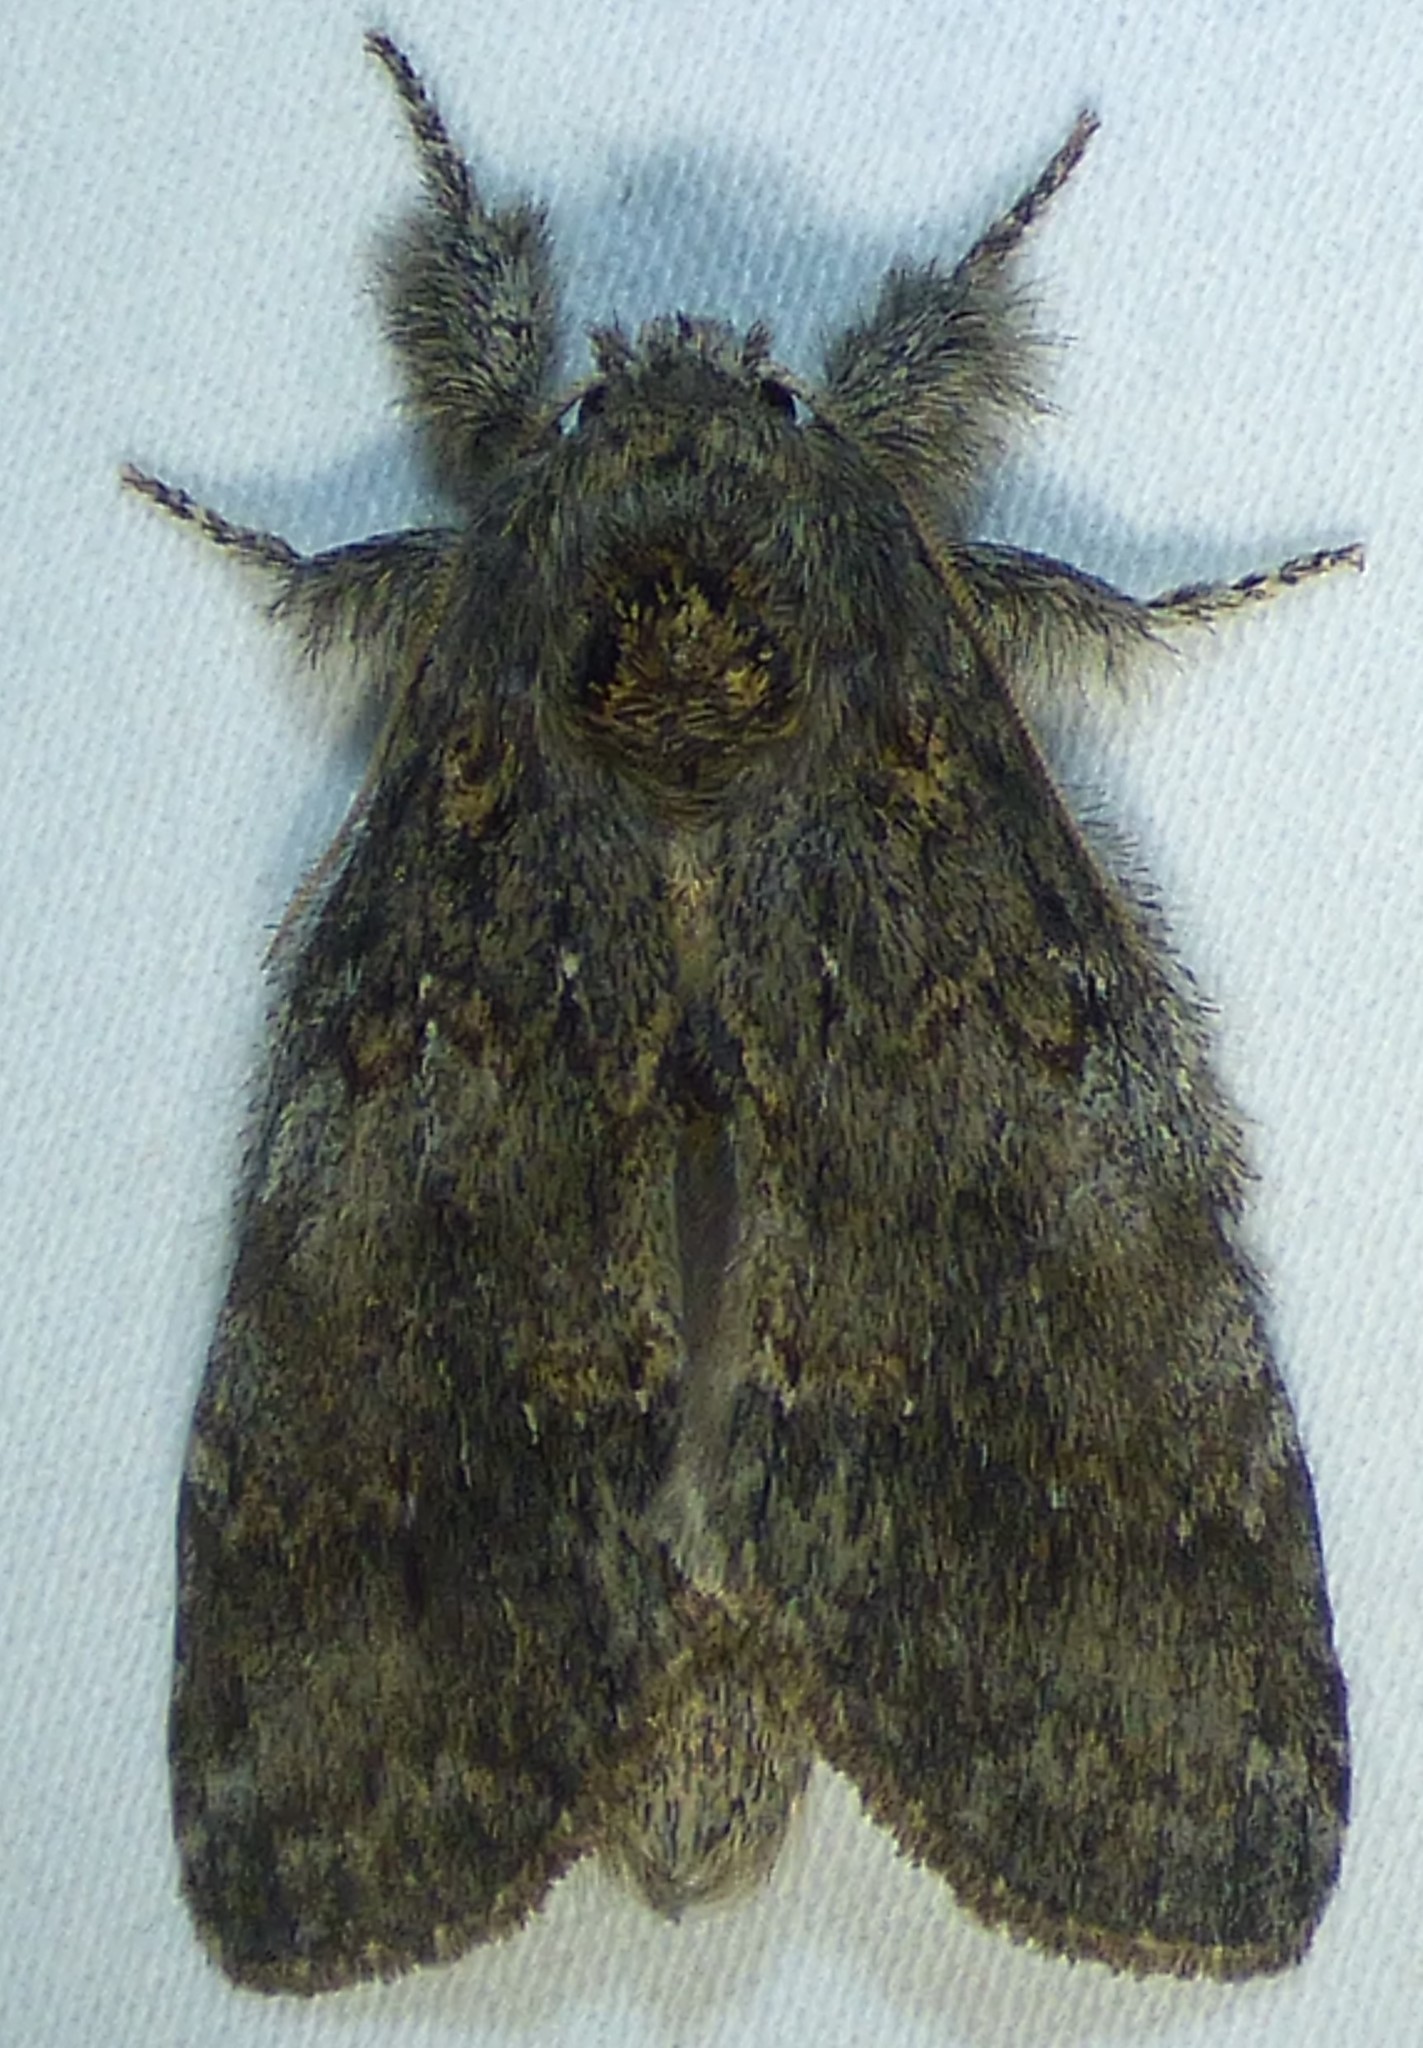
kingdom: Animalia
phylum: Arthropoda
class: Insecta
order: Lepidoptera
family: Notodontidae
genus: Peridea
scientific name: Peridea angulosa
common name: Angulose prominent
